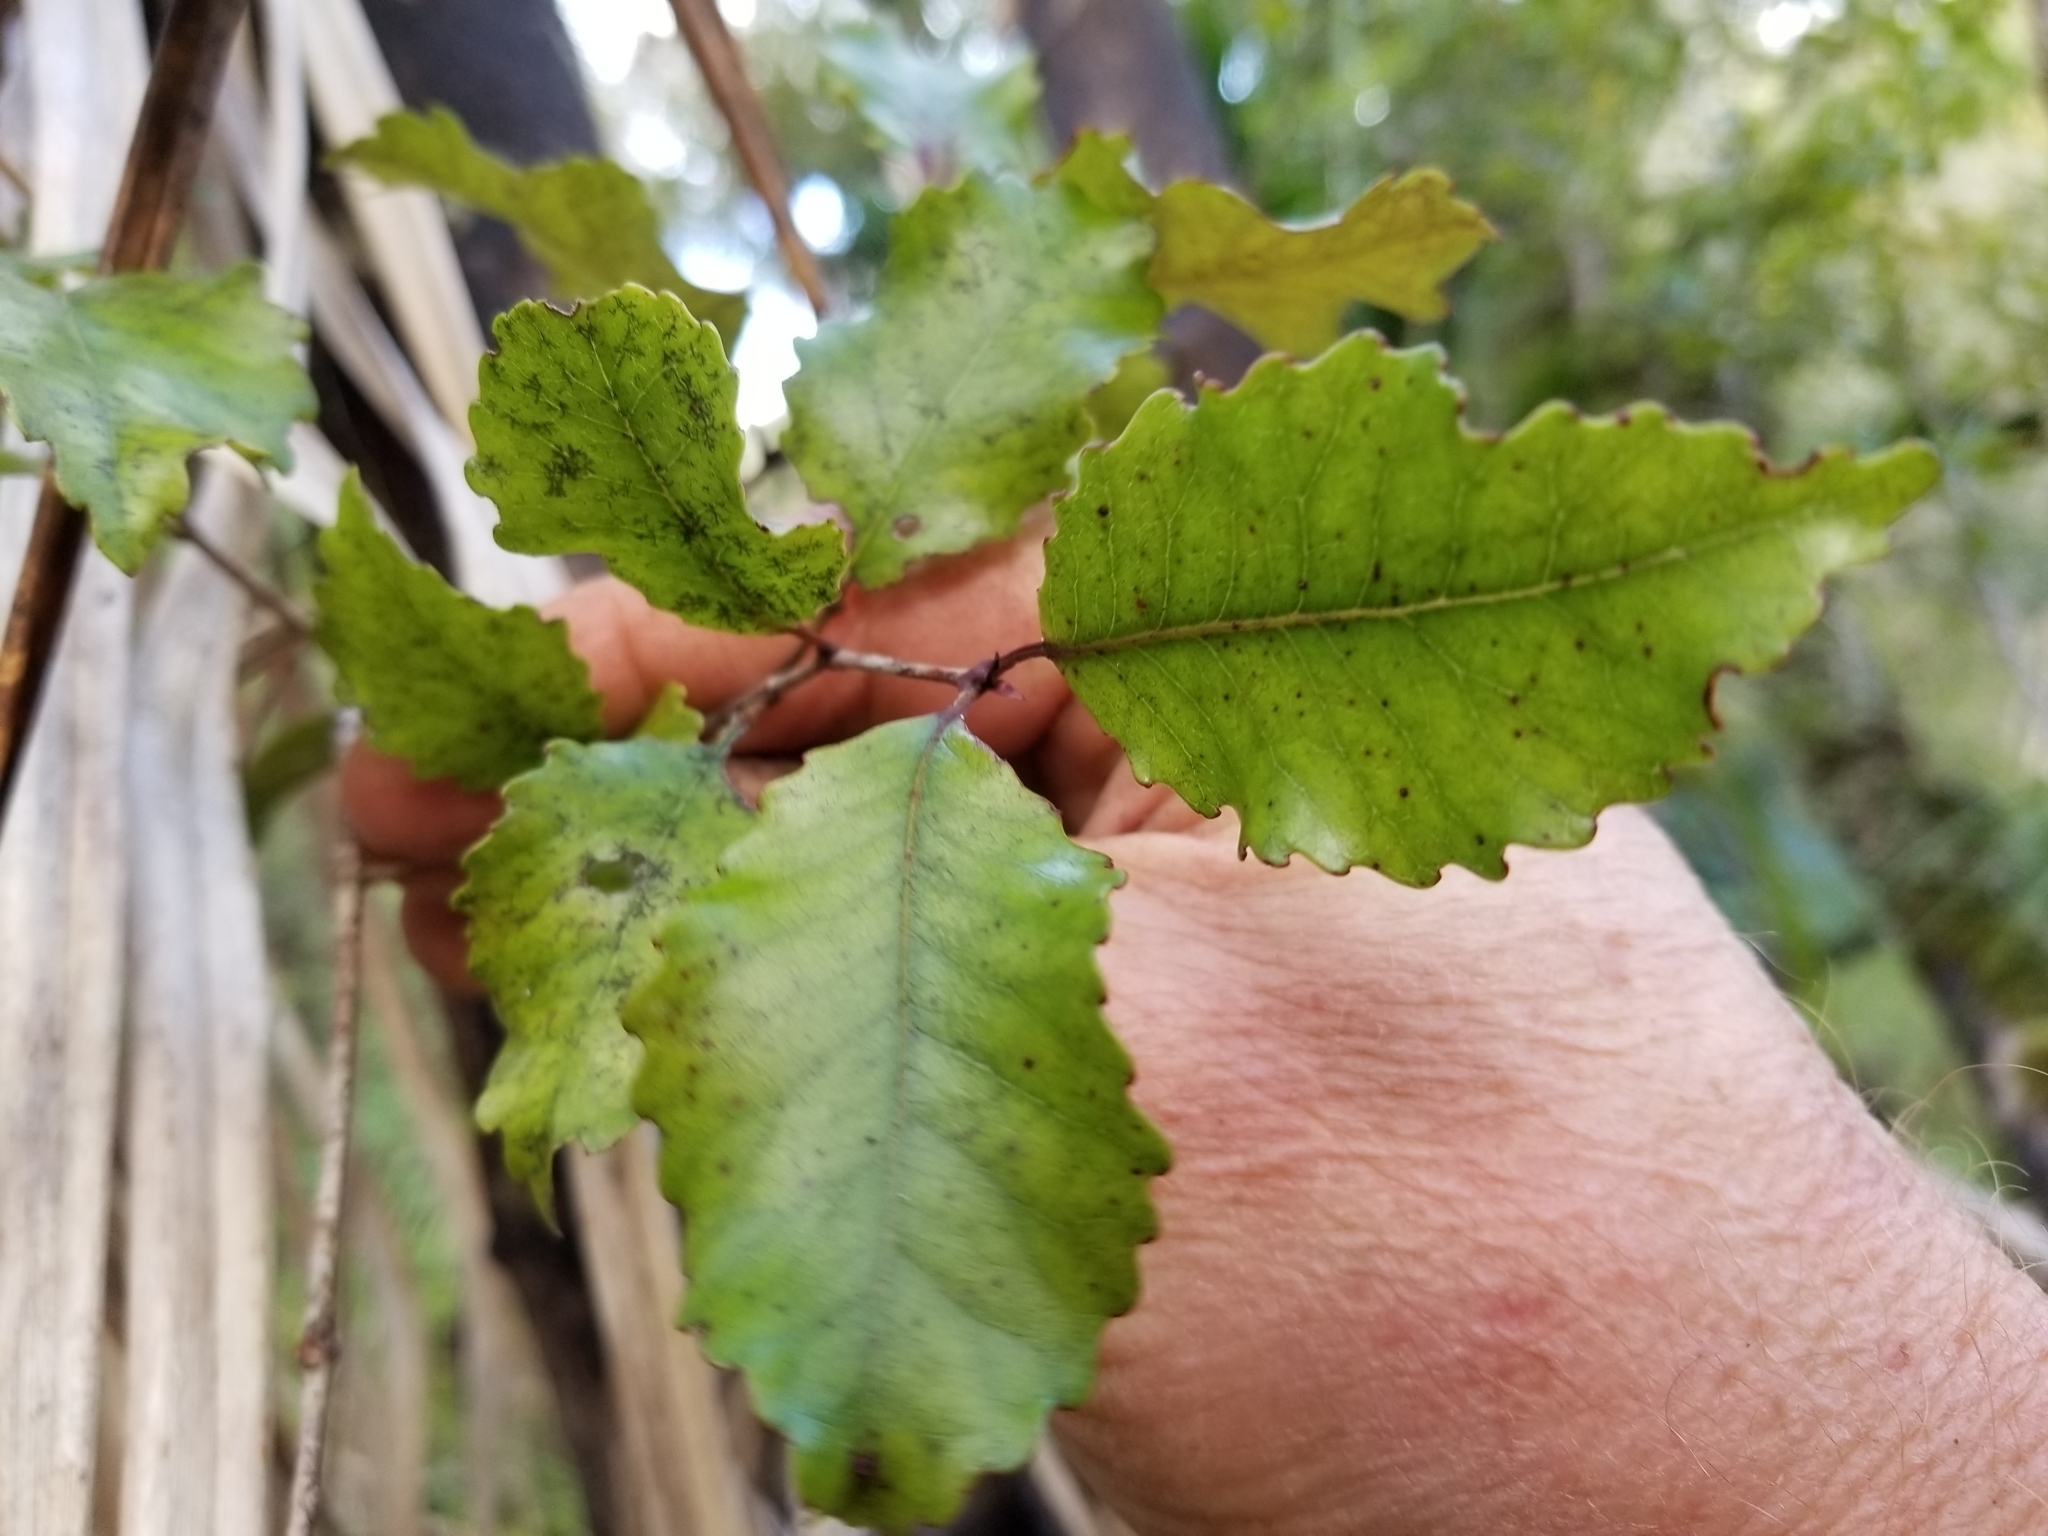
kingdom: Plantae
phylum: Tracheophyta
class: Magnoliopsida
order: Oxalidales
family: Cunoniaceae
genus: Pterophylla
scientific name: Pterophylla racemosa
